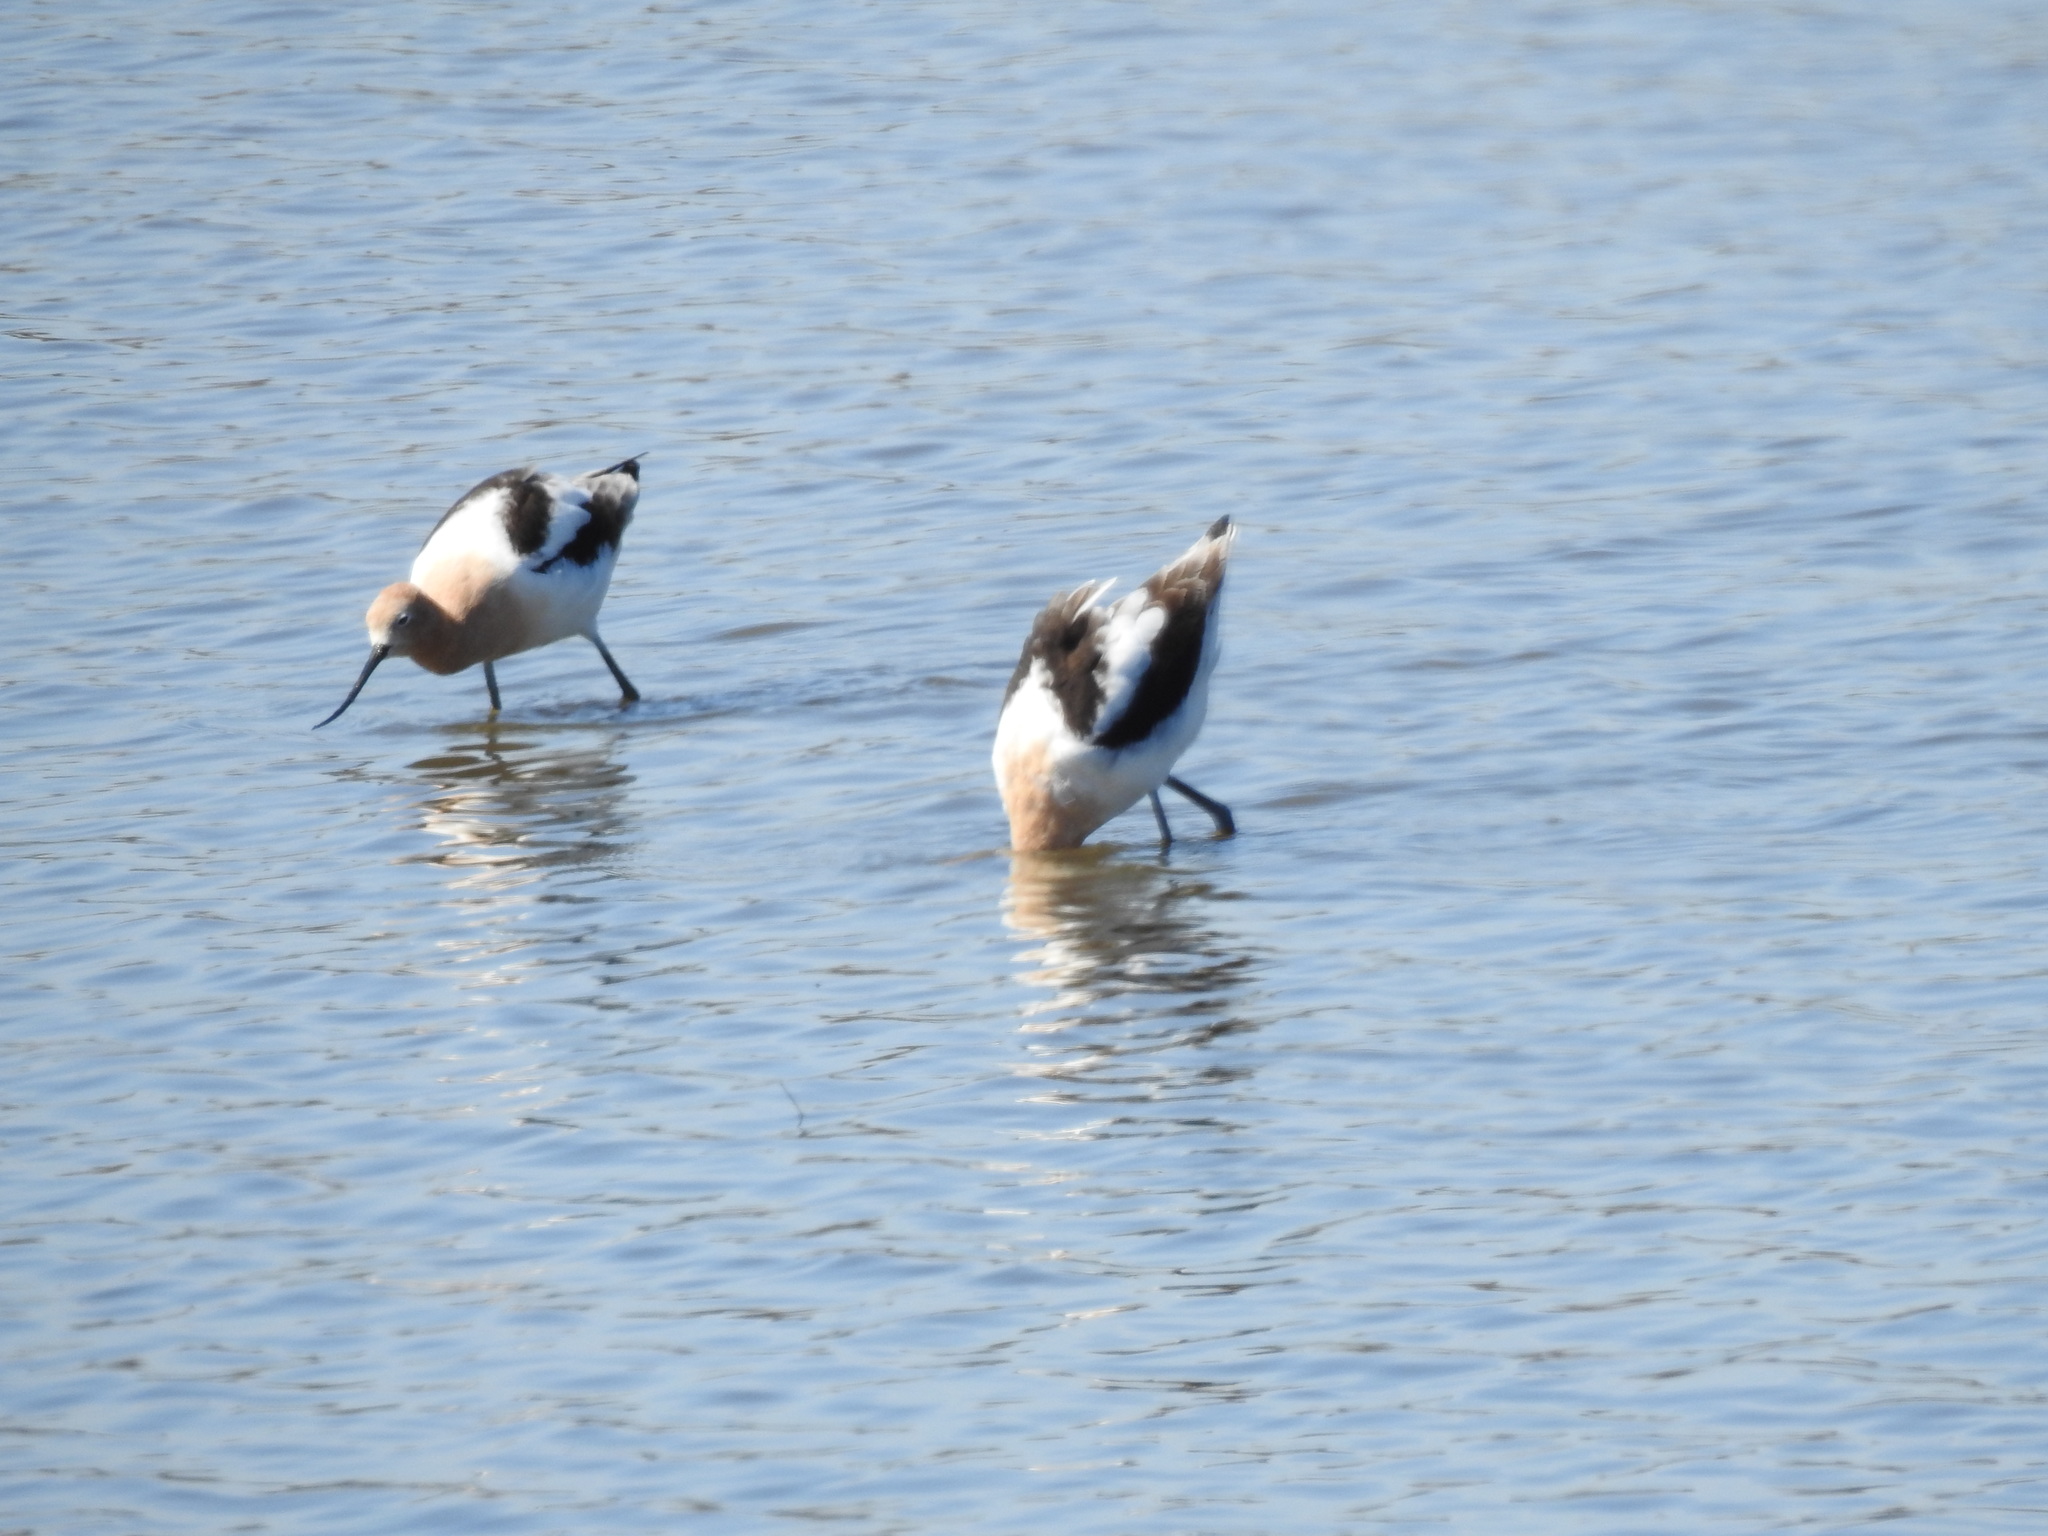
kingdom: Animalia
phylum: Chordata
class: Aves
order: Charadriiformes
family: Recurvirostridae
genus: Recurvirostra
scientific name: Recurvirostra americana
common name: American avocet
